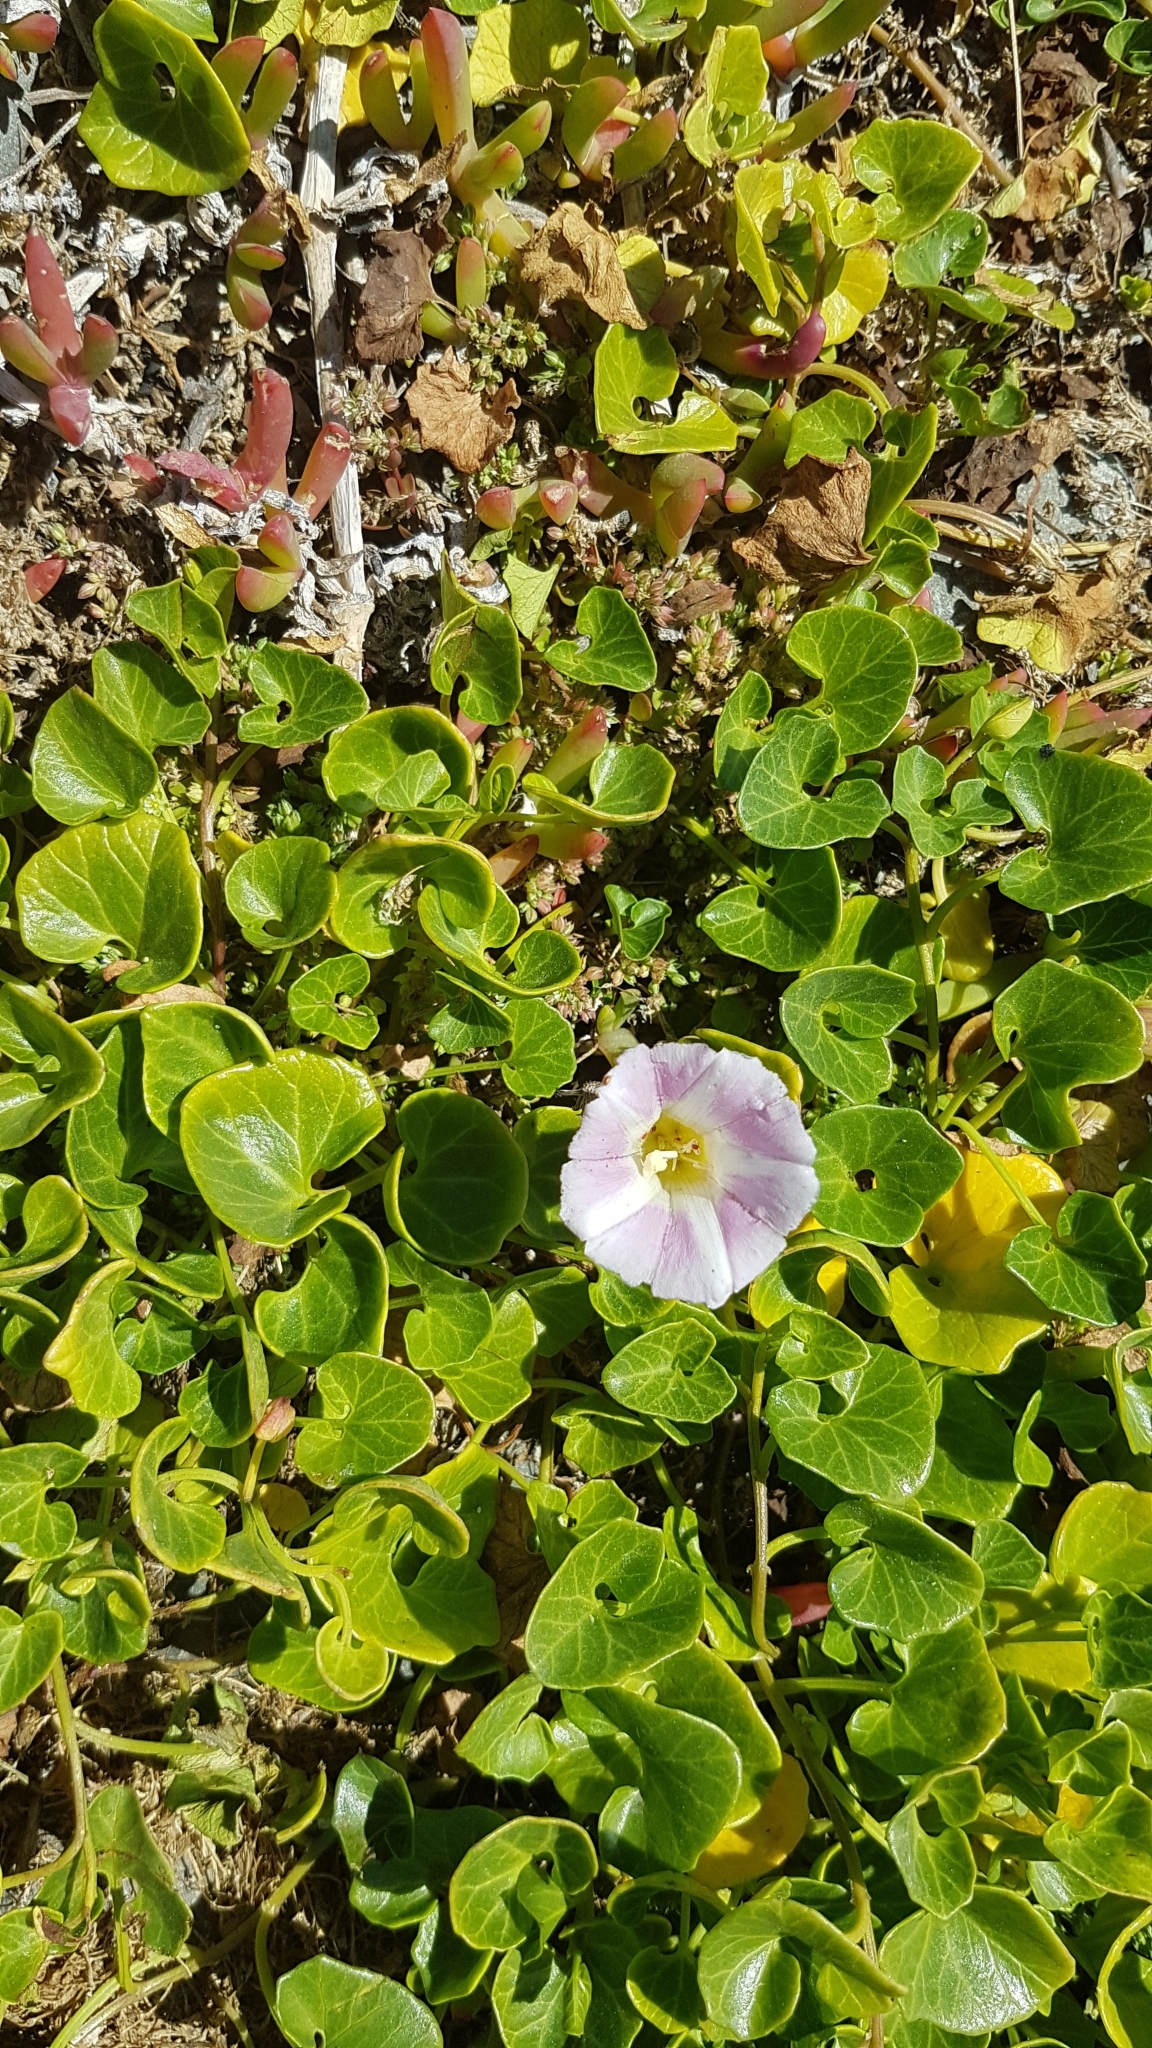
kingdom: Plantae
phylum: Tracheophyta
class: Magnoliopsida
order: Solanales
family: Convolvulaceae
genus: Calystegia
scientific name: Calystegia soldanella
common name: Sea bindweed
